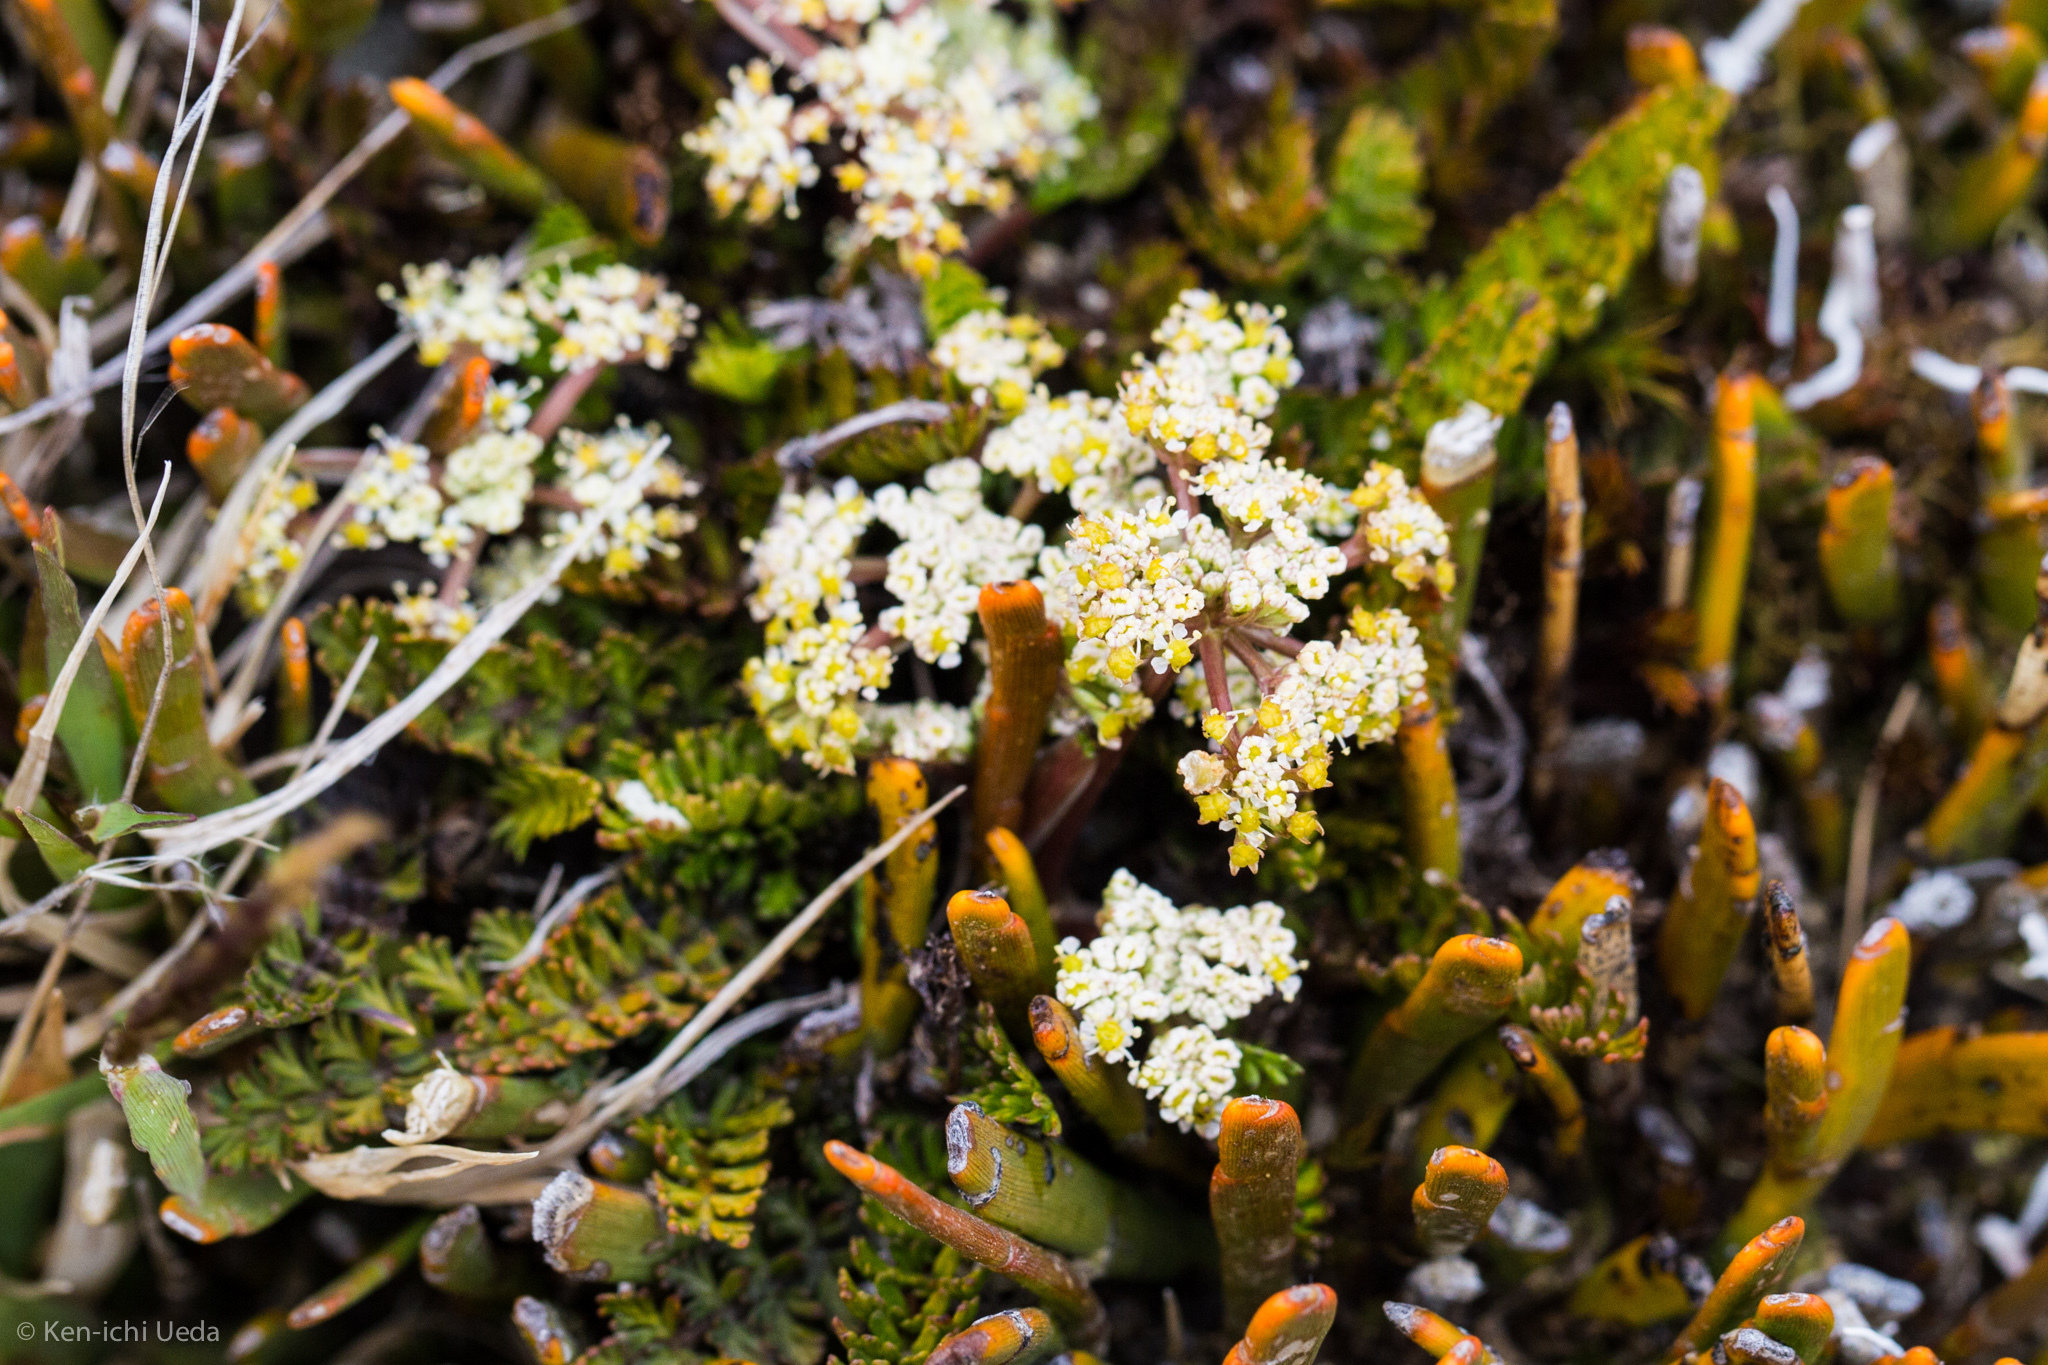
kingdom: Plantae
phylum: Tracheophyta
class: Magnoliopsida
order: Apiales
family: Apiaceae
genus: Anisotome
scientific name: Anisotome aromatica
